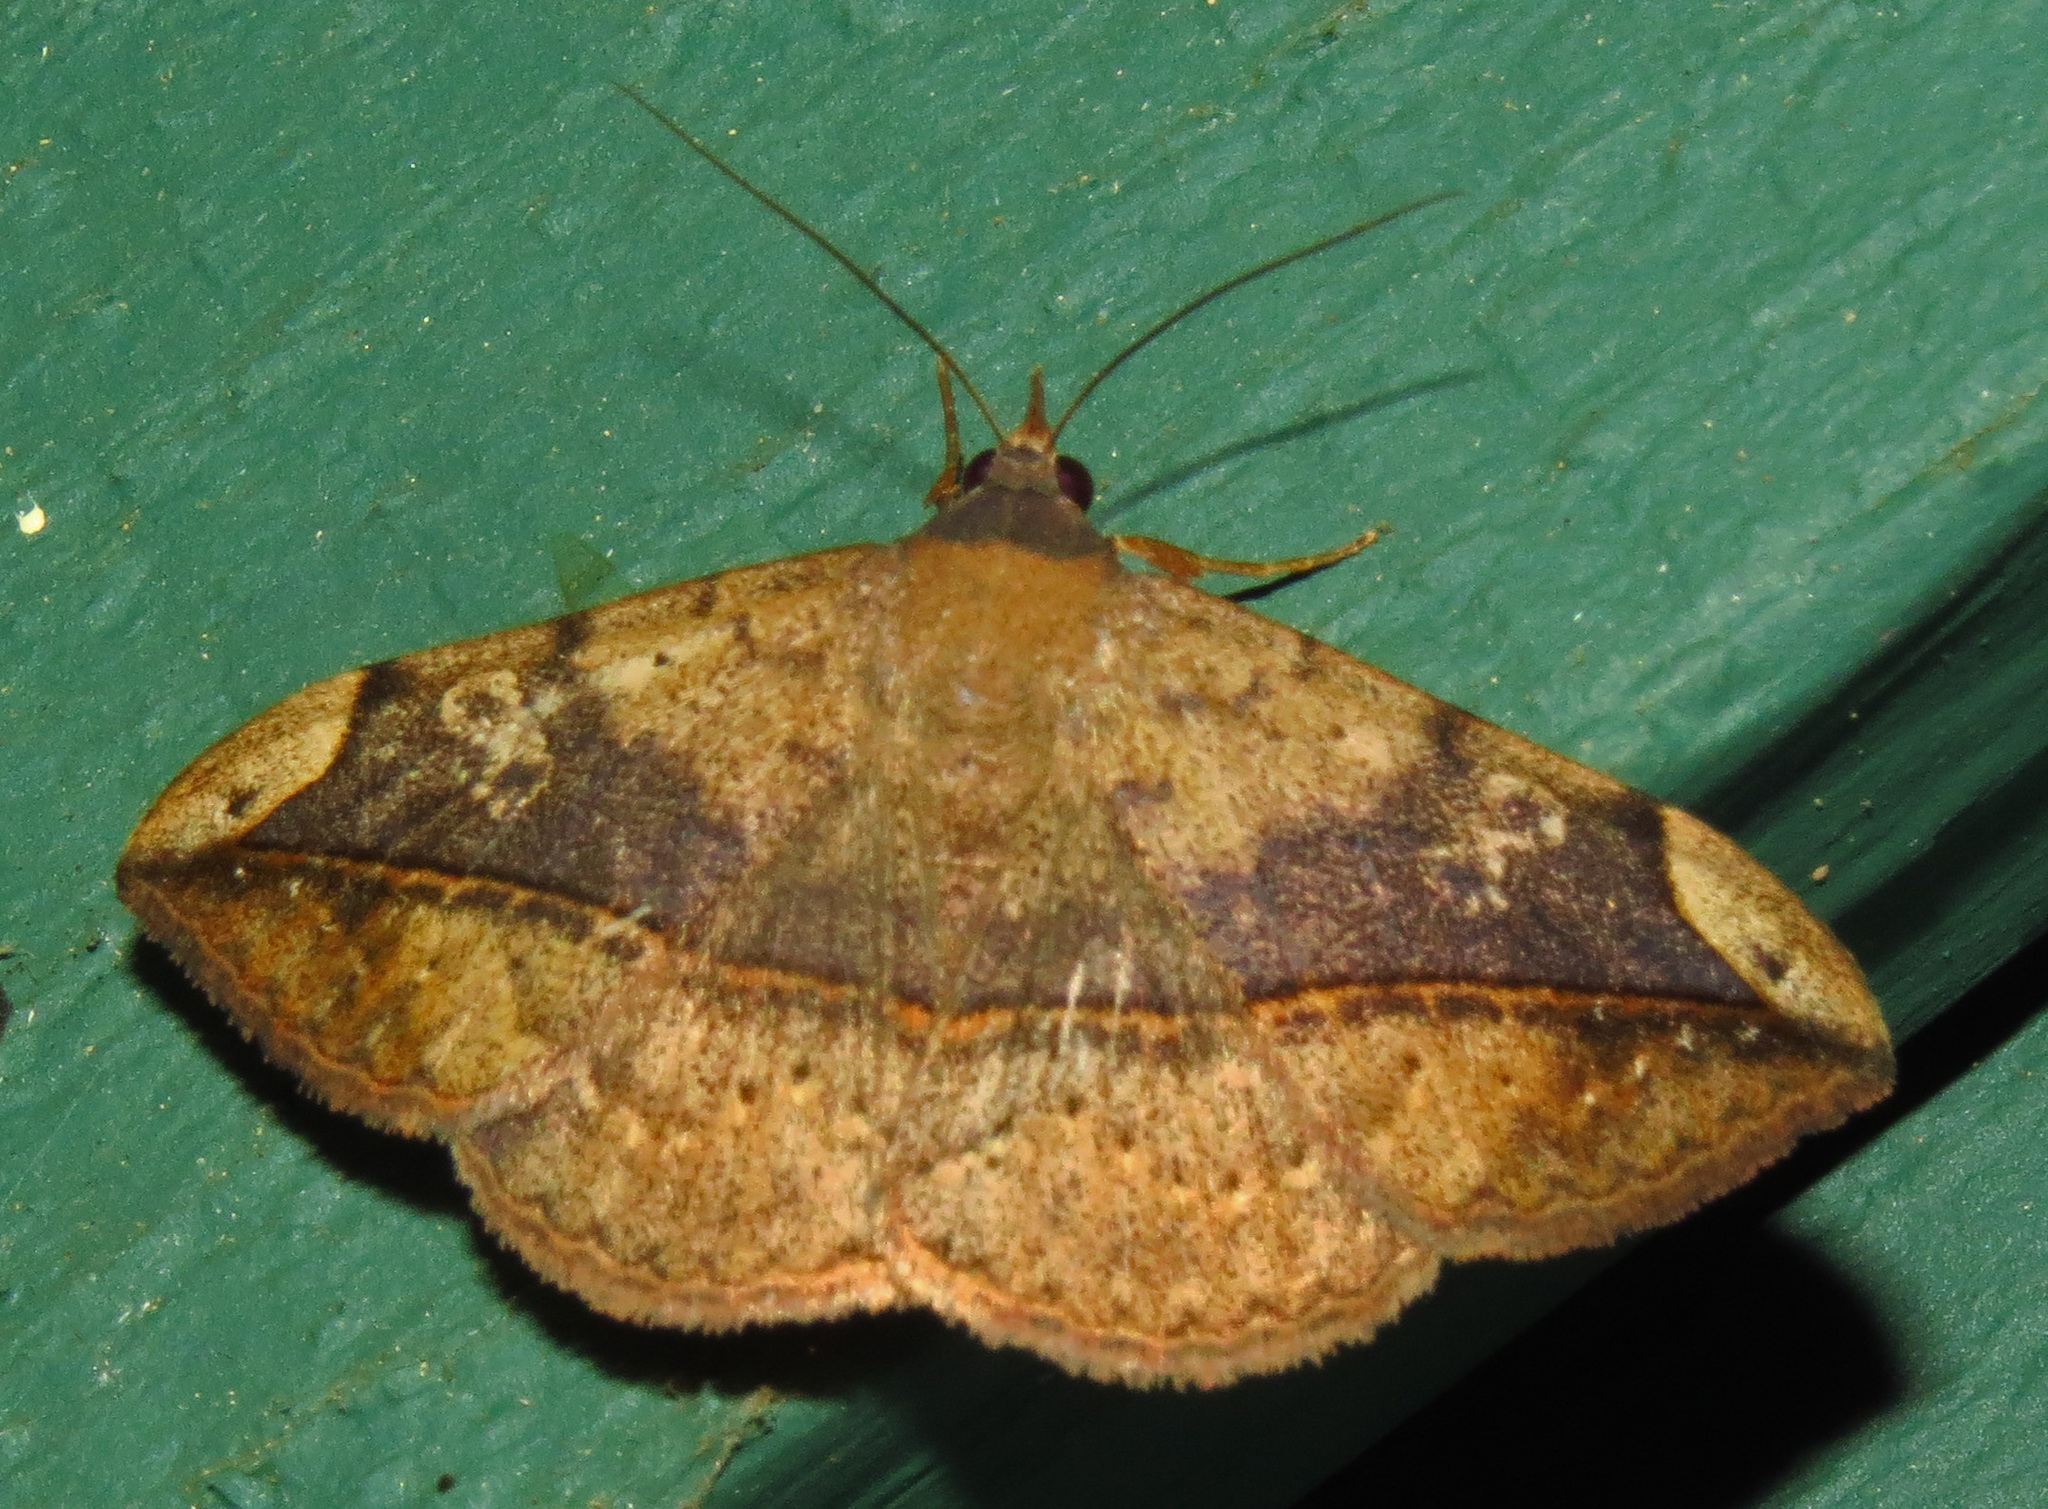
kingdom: Animalia
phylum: Arthropoda
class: Insecta
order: Lepidoptera
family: Erebidae
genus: Anticarsia
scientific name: Anticarsia gemmatalis
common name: Cutworm moth
